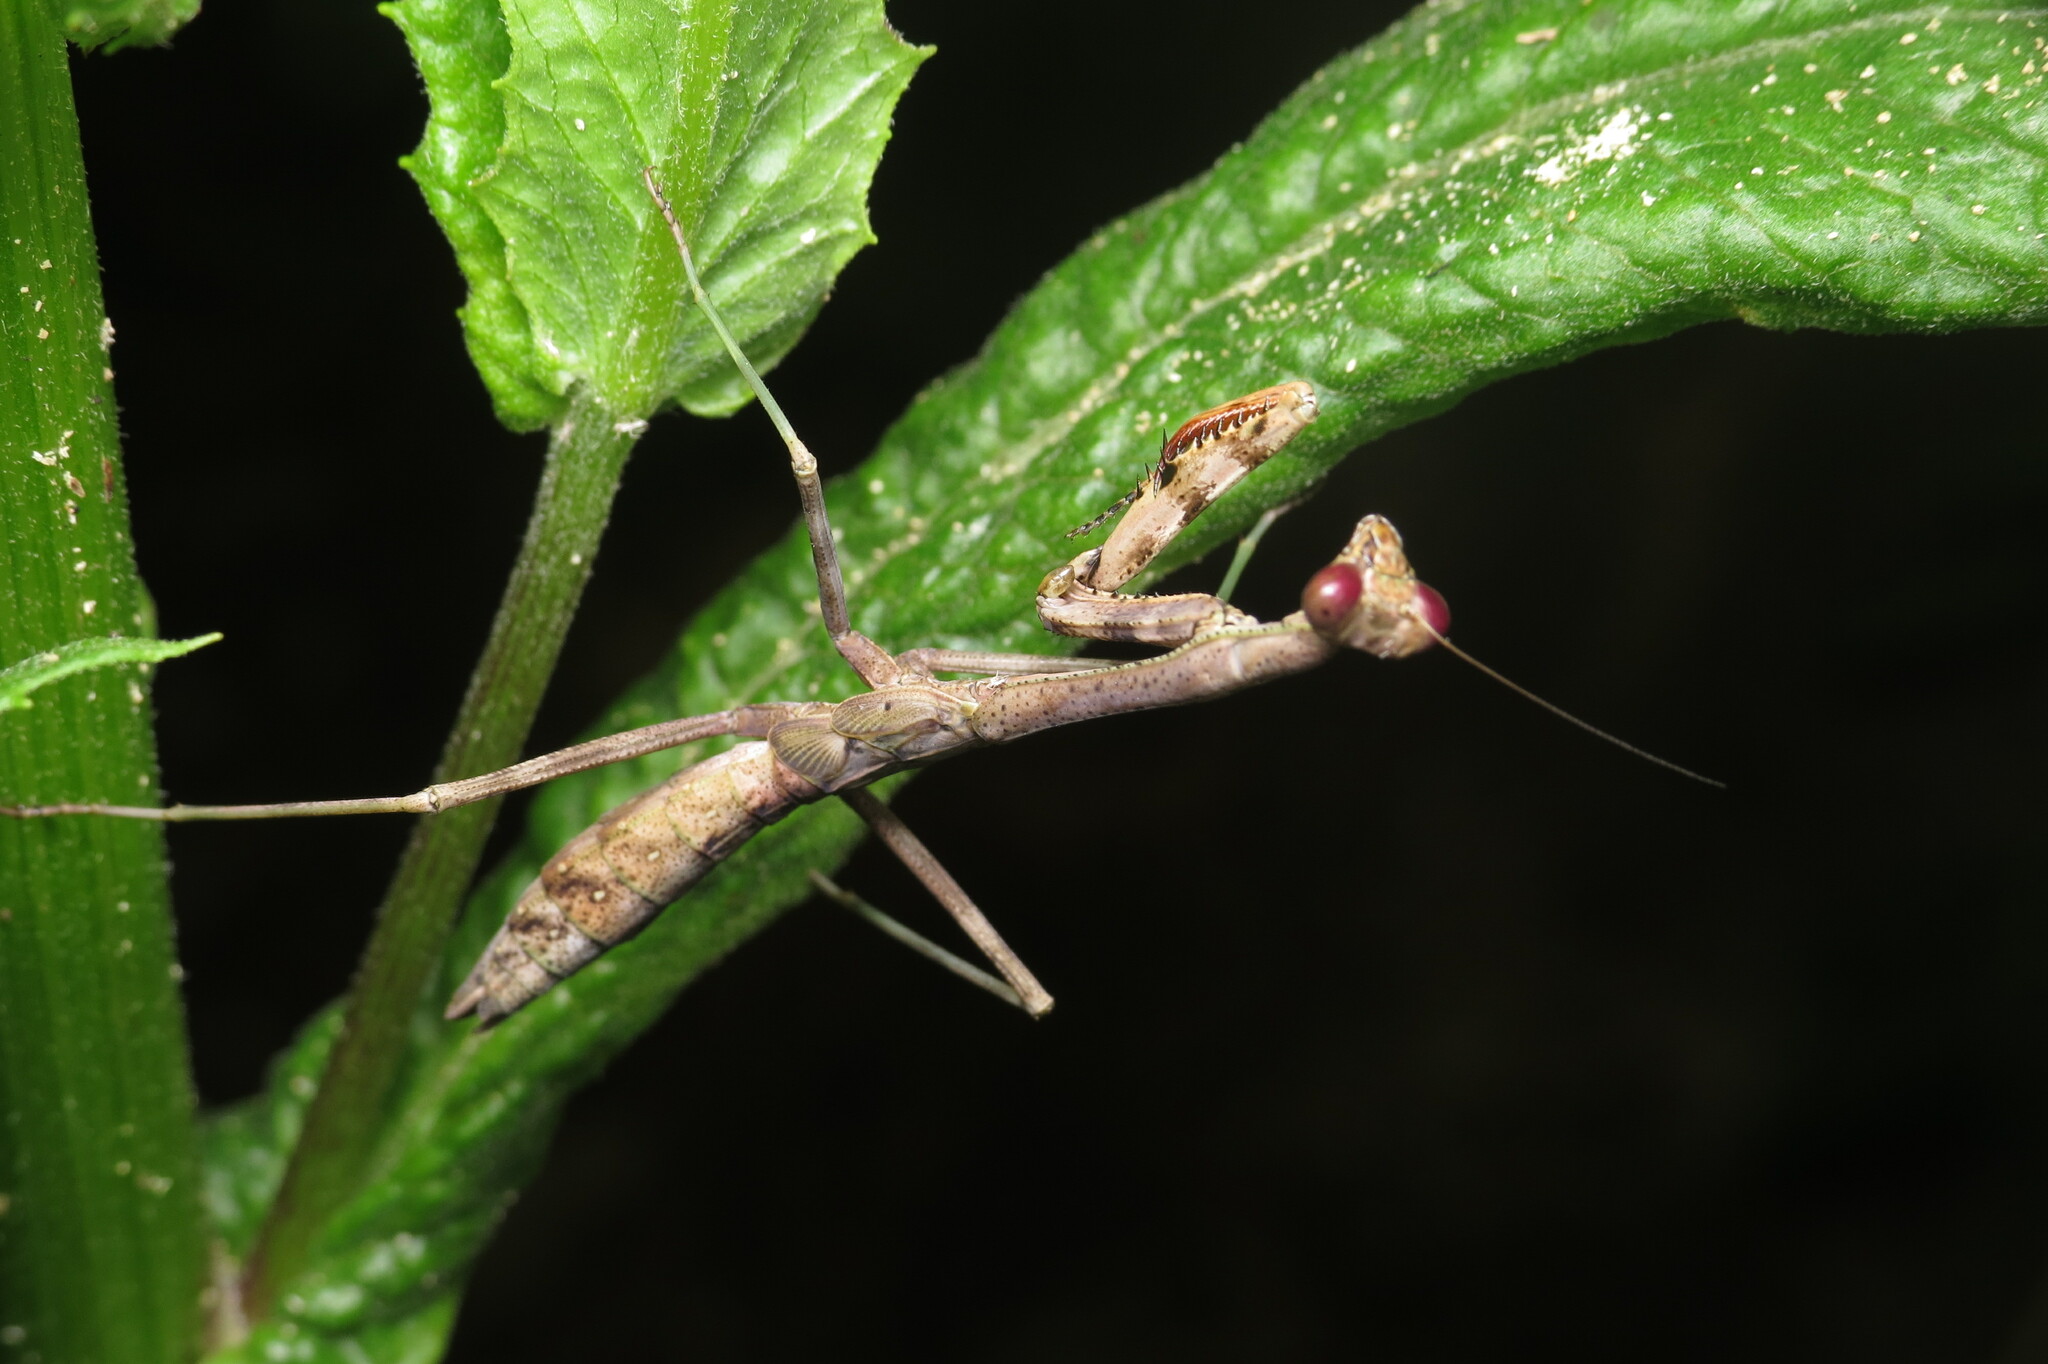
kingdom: Animalia
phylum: Arthropoda
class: Insecta
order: Mantodea
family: Mantidae
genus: Stagmomantis
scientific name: Stagmomantis carolina
